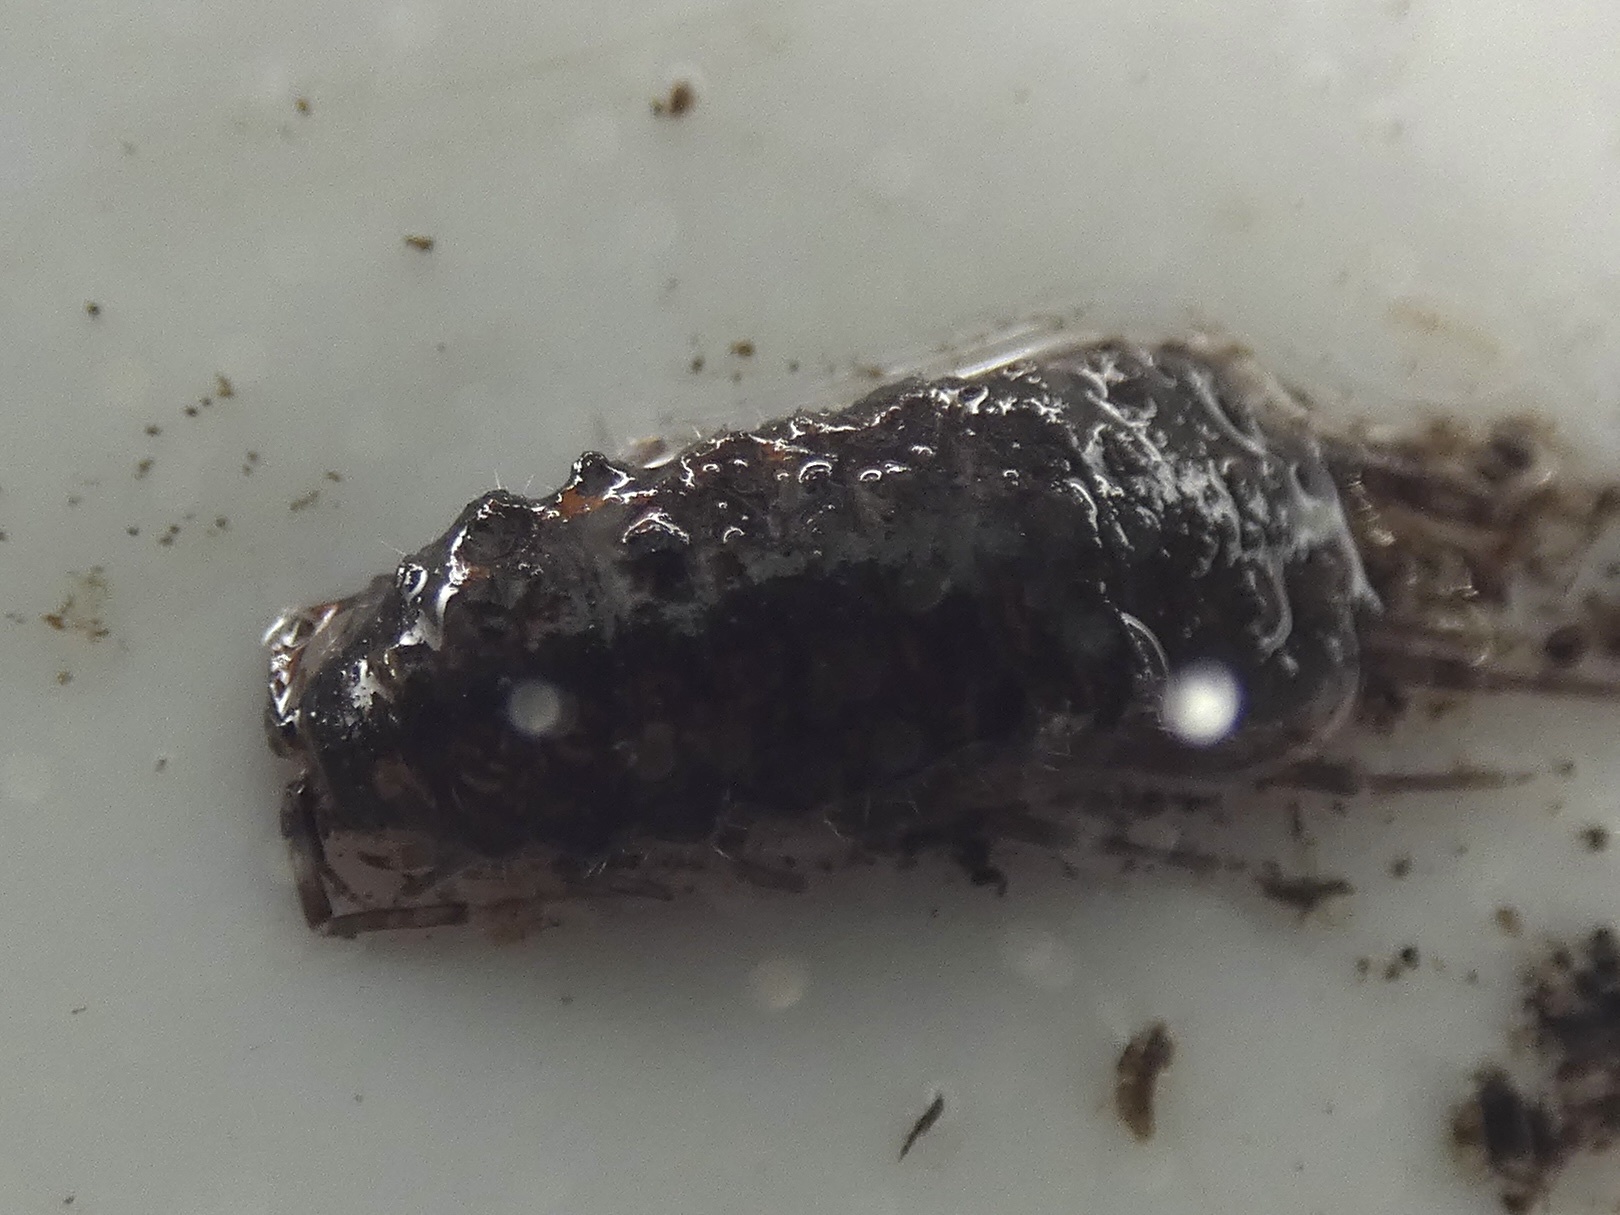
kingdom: Animalia
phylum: Arthropoda
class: Malacostraca
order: Isopoda
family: Asellidae
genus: Asellus
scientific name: Asellus aquaticus
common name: Water hog lice/slaters
